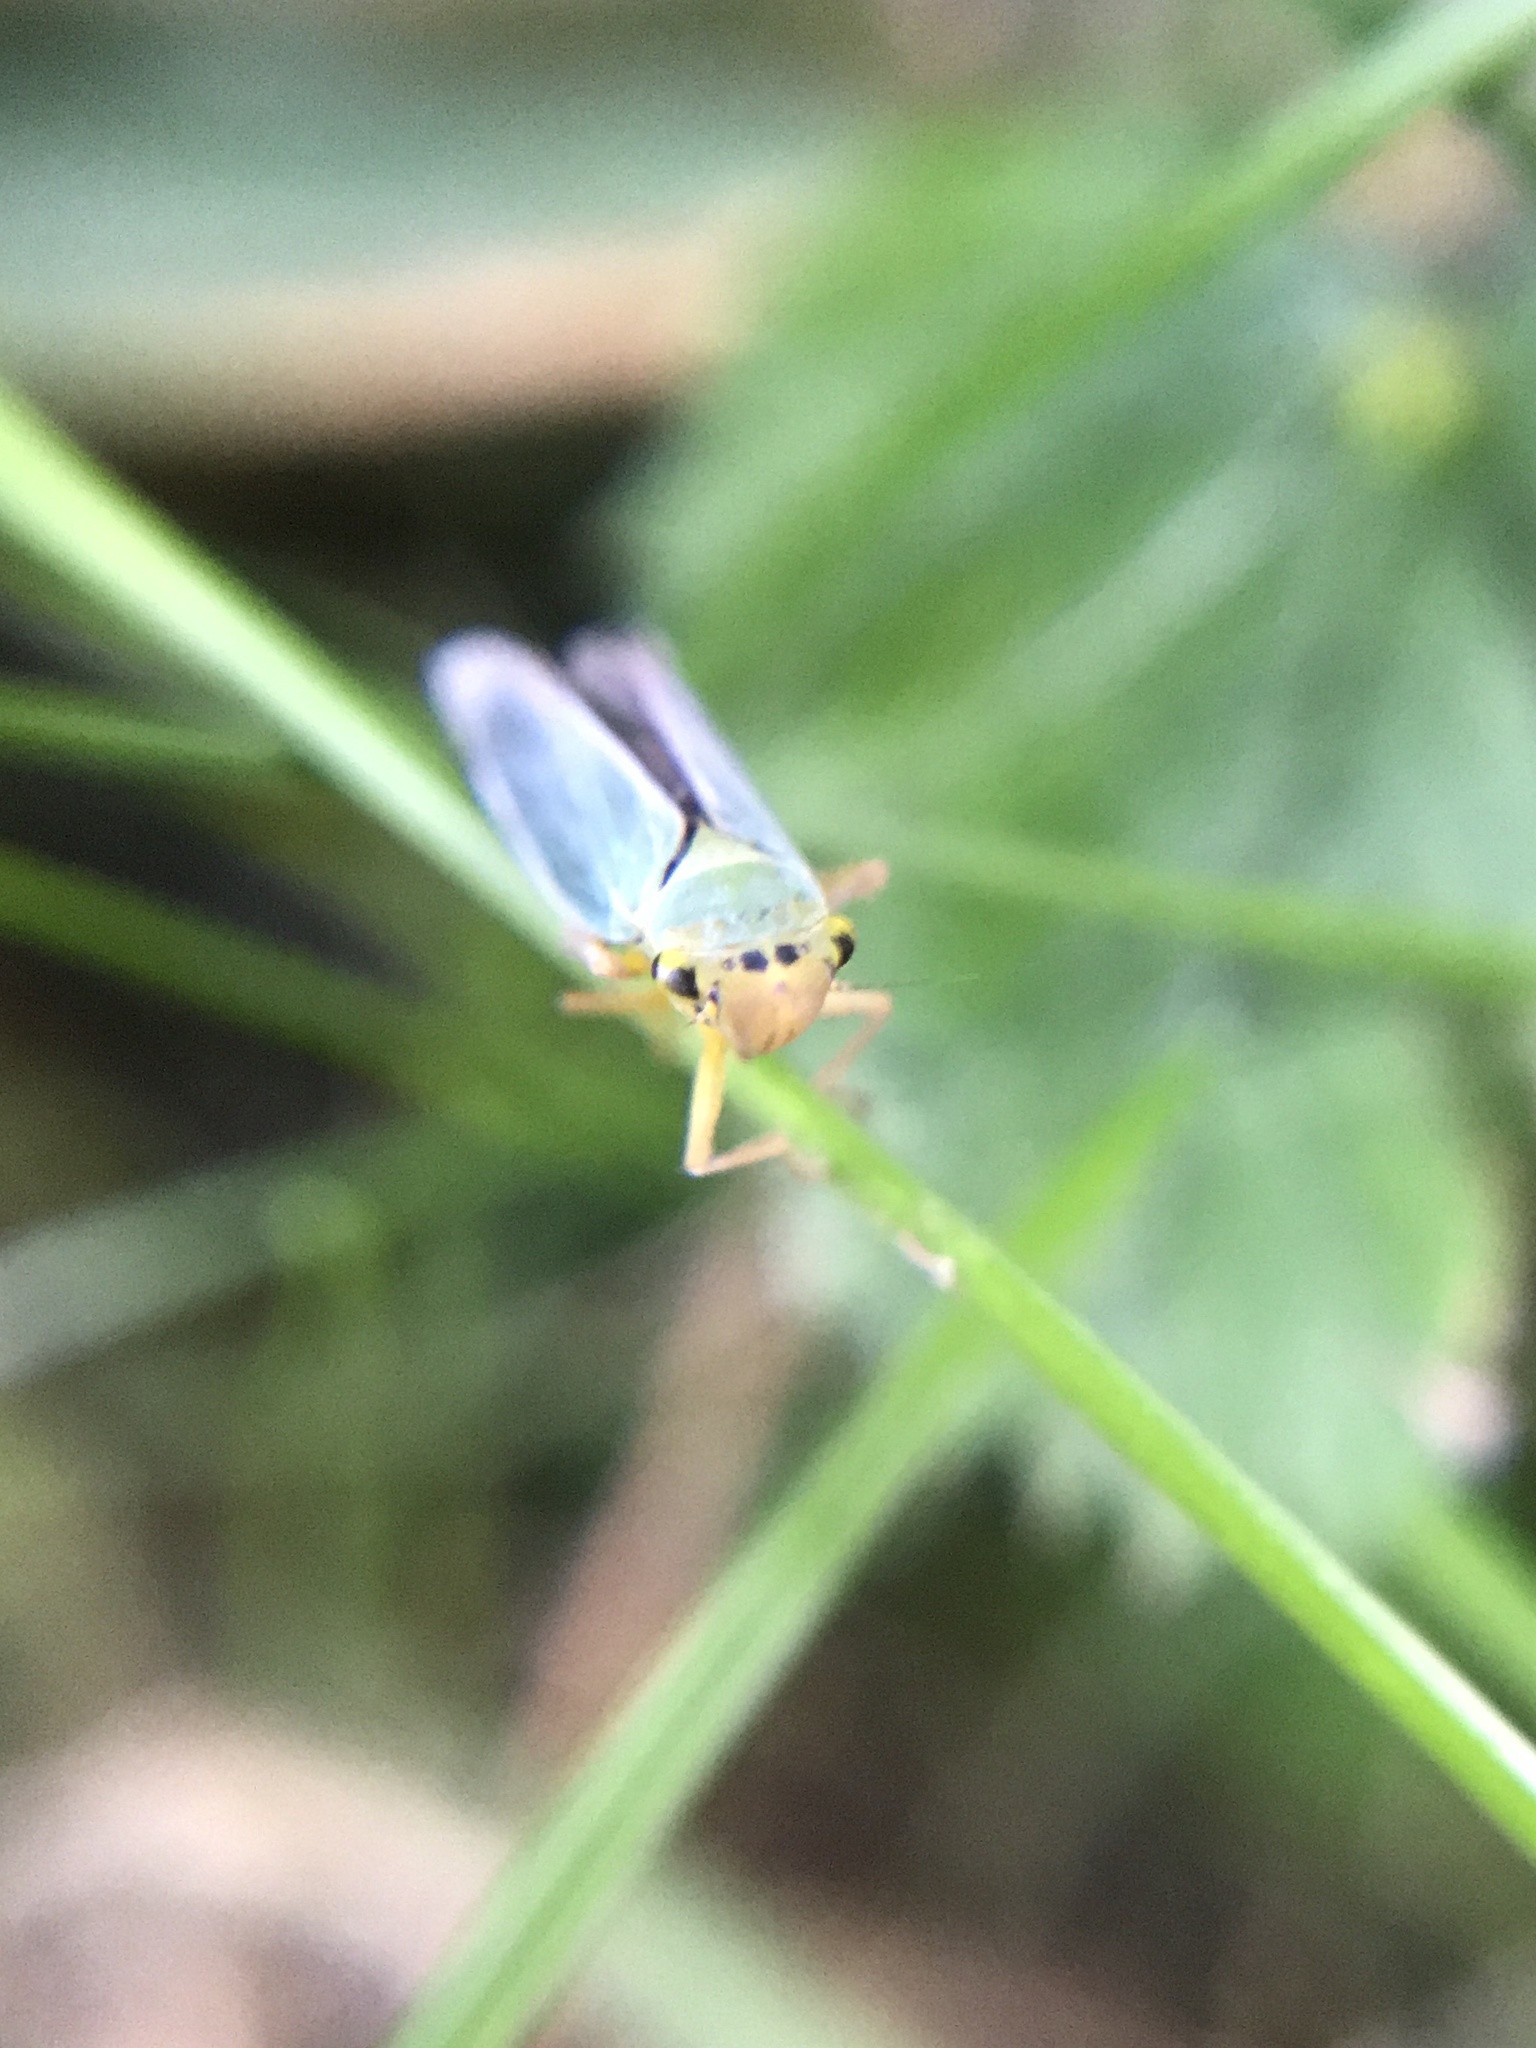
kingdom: Animalia
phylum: Arthropoda
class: Insecta
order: Hemiptera
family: Cicadellidae
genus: Cicadella
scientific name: Cicadella viridis
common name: Leafhopper
